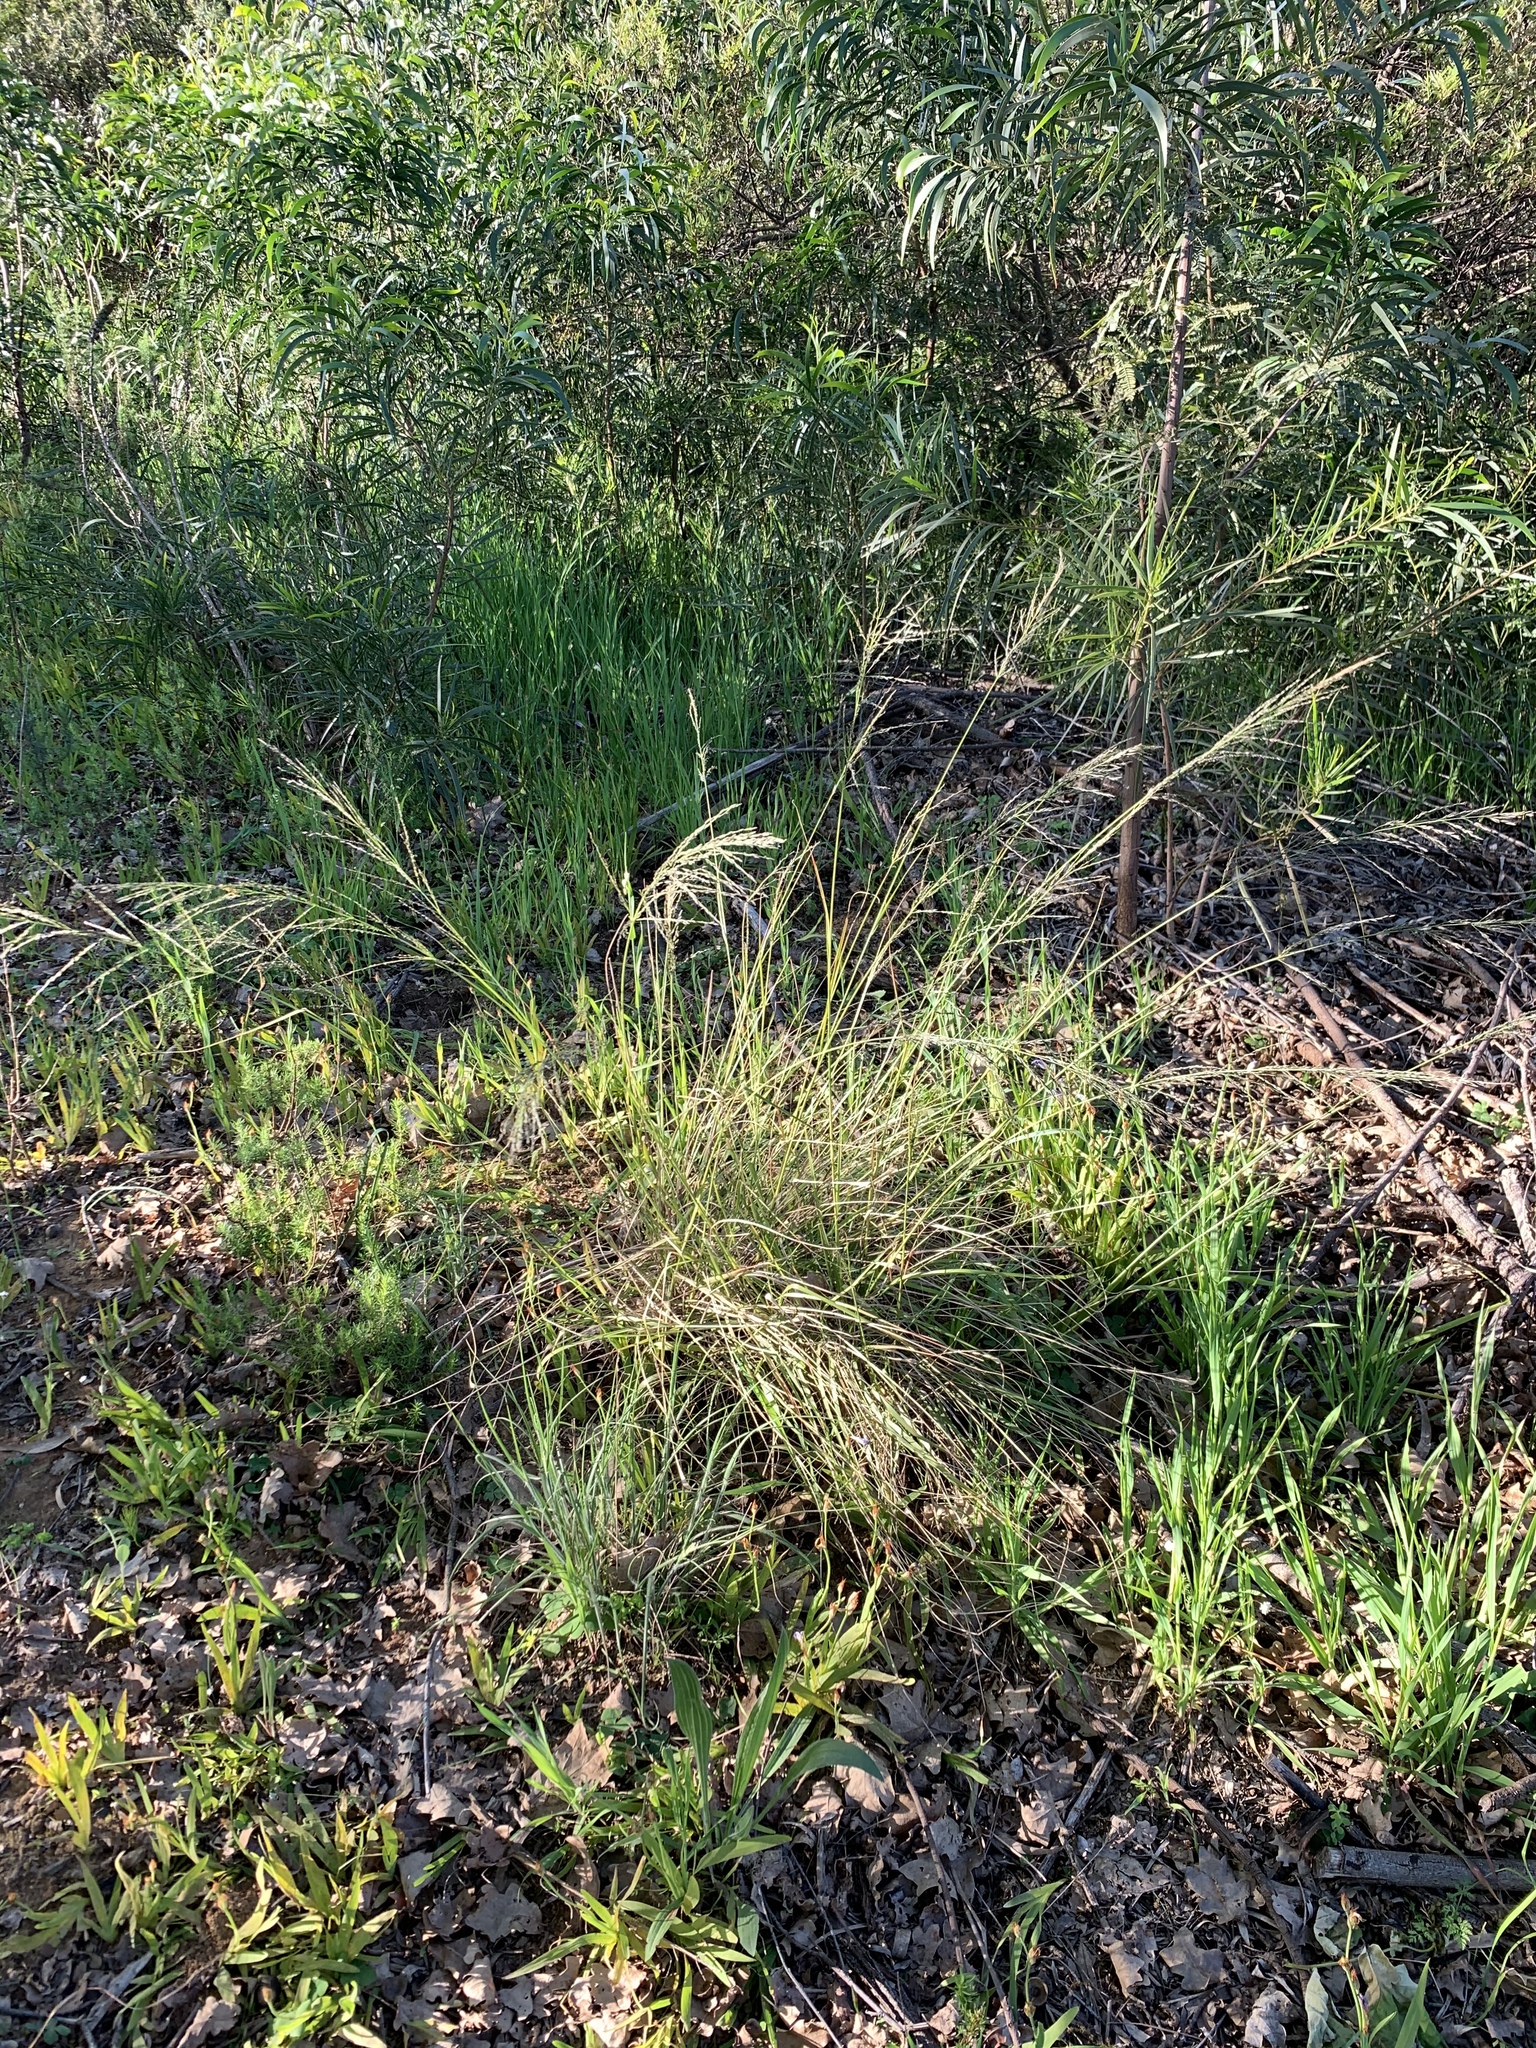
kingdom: Plantae
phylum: Tracheophyta
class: Liliopsida
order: Poales
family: Poaceae
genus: Eragrostis
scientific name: Eragrostis curvula
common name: African love-grass
